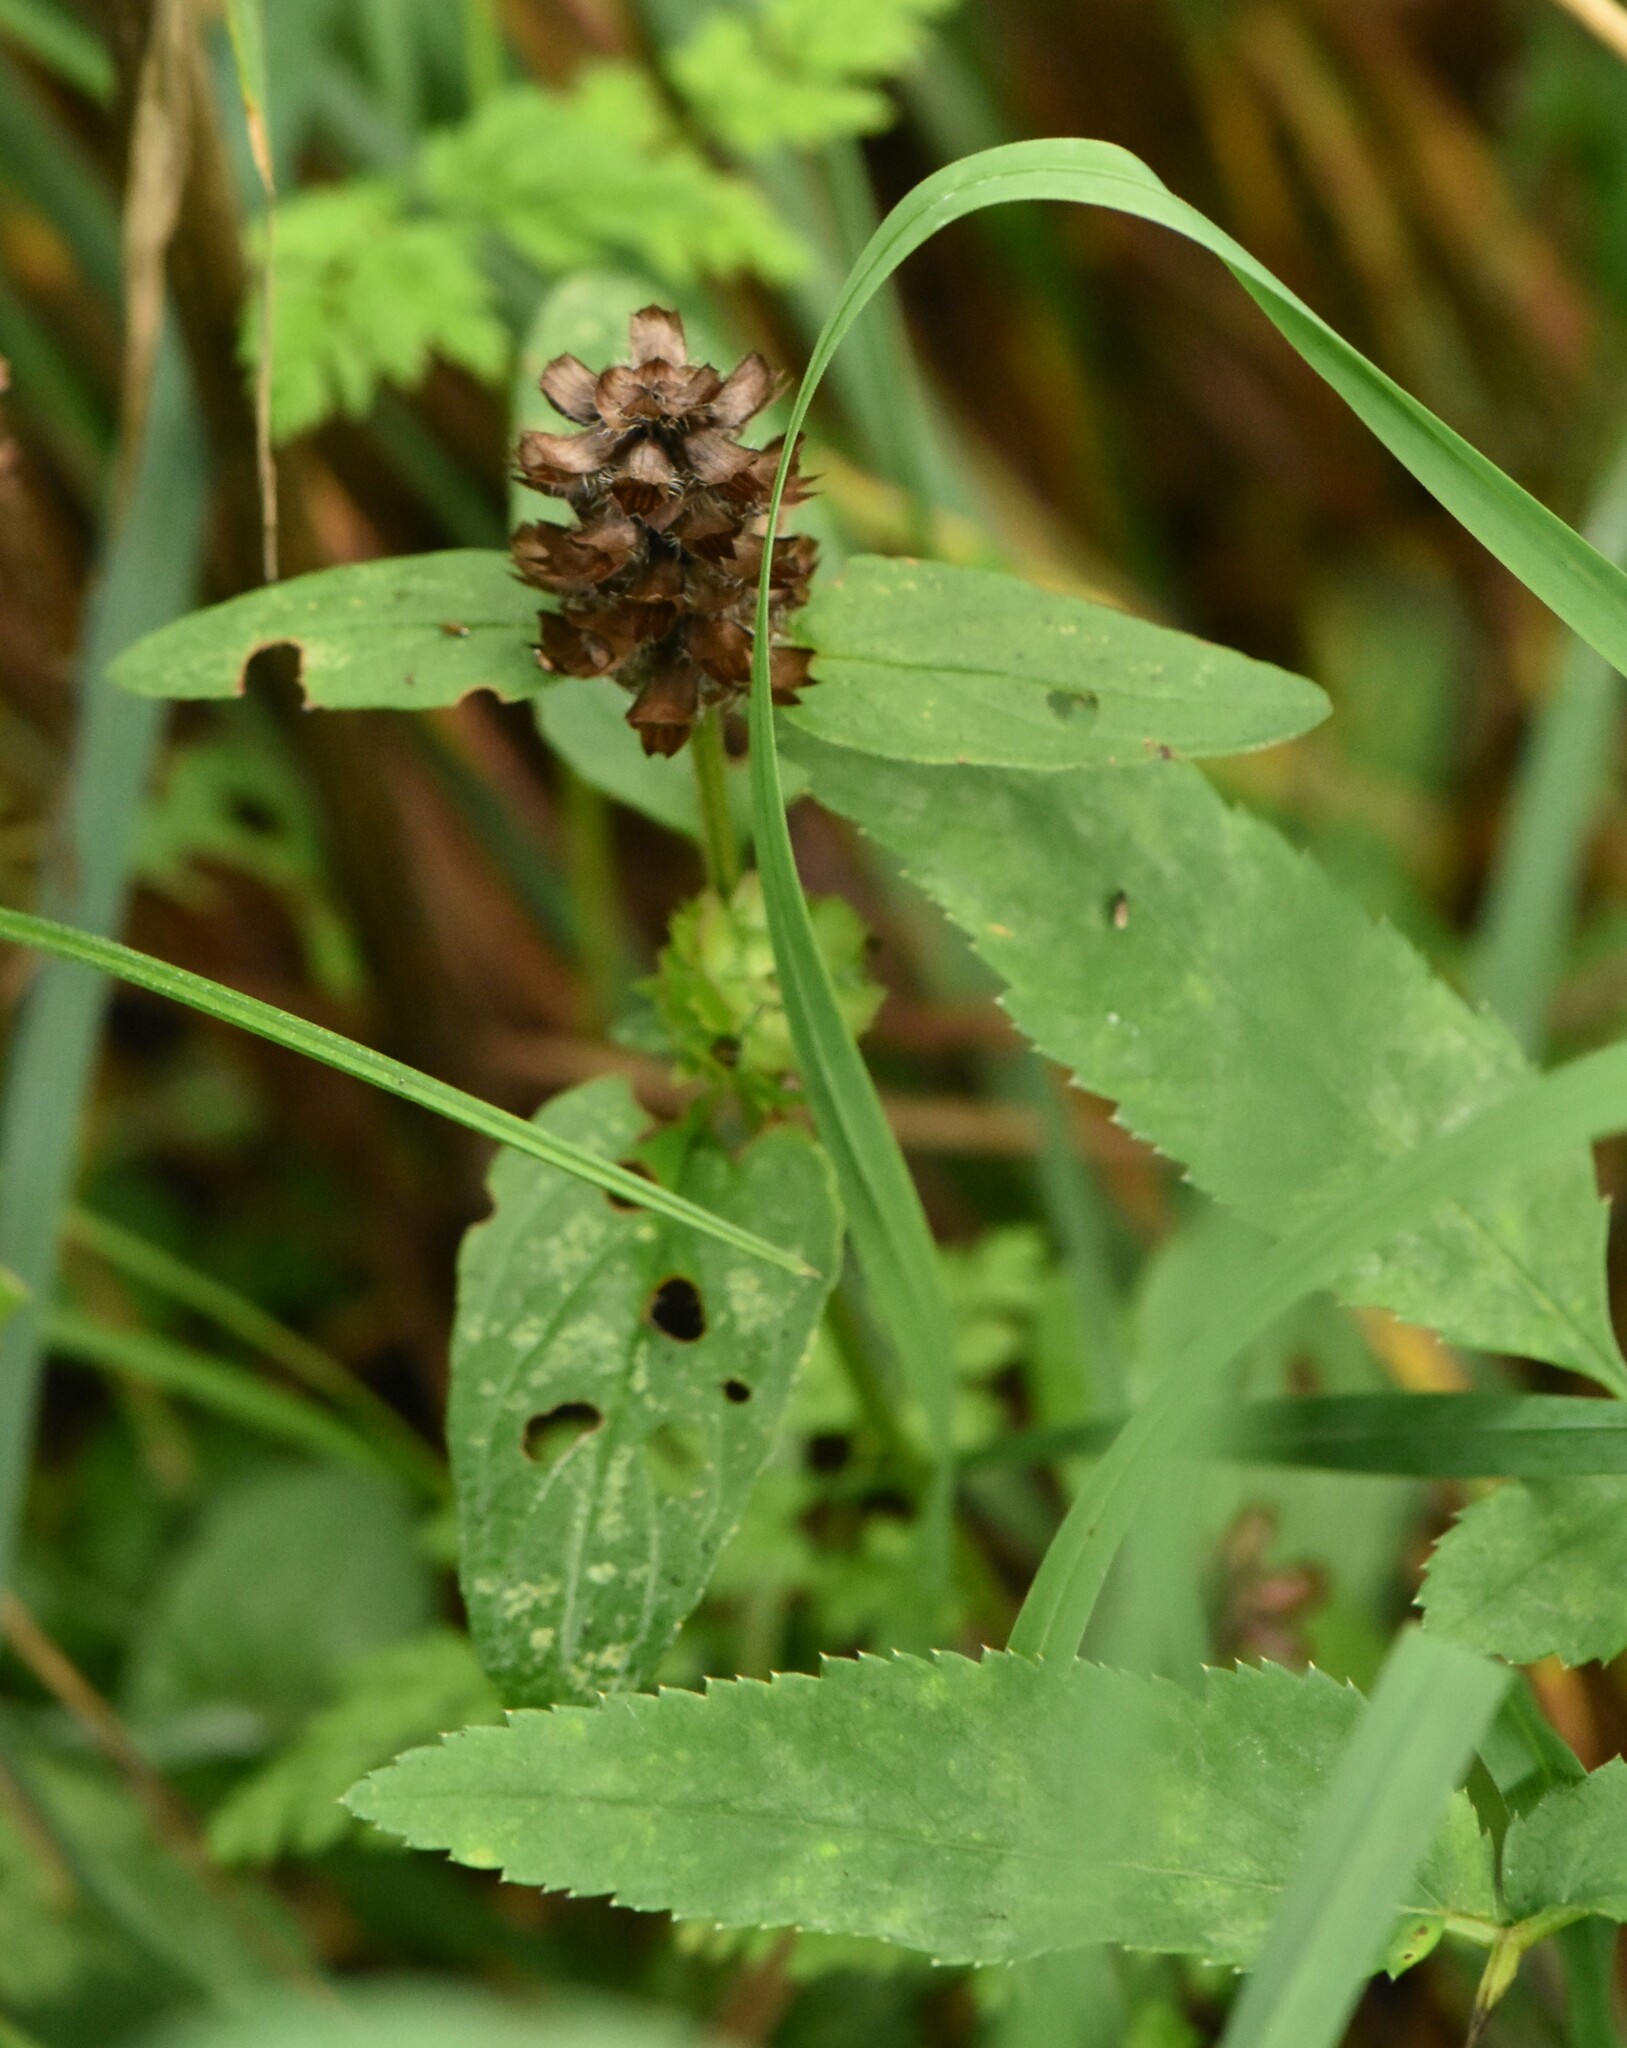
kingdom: Plantae
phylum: Tracheophyta
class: Magnoliopsida
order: Lamiales
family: Lamiaceae
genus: Prunella
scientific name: Prunella vulgaris
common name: Heal-all
